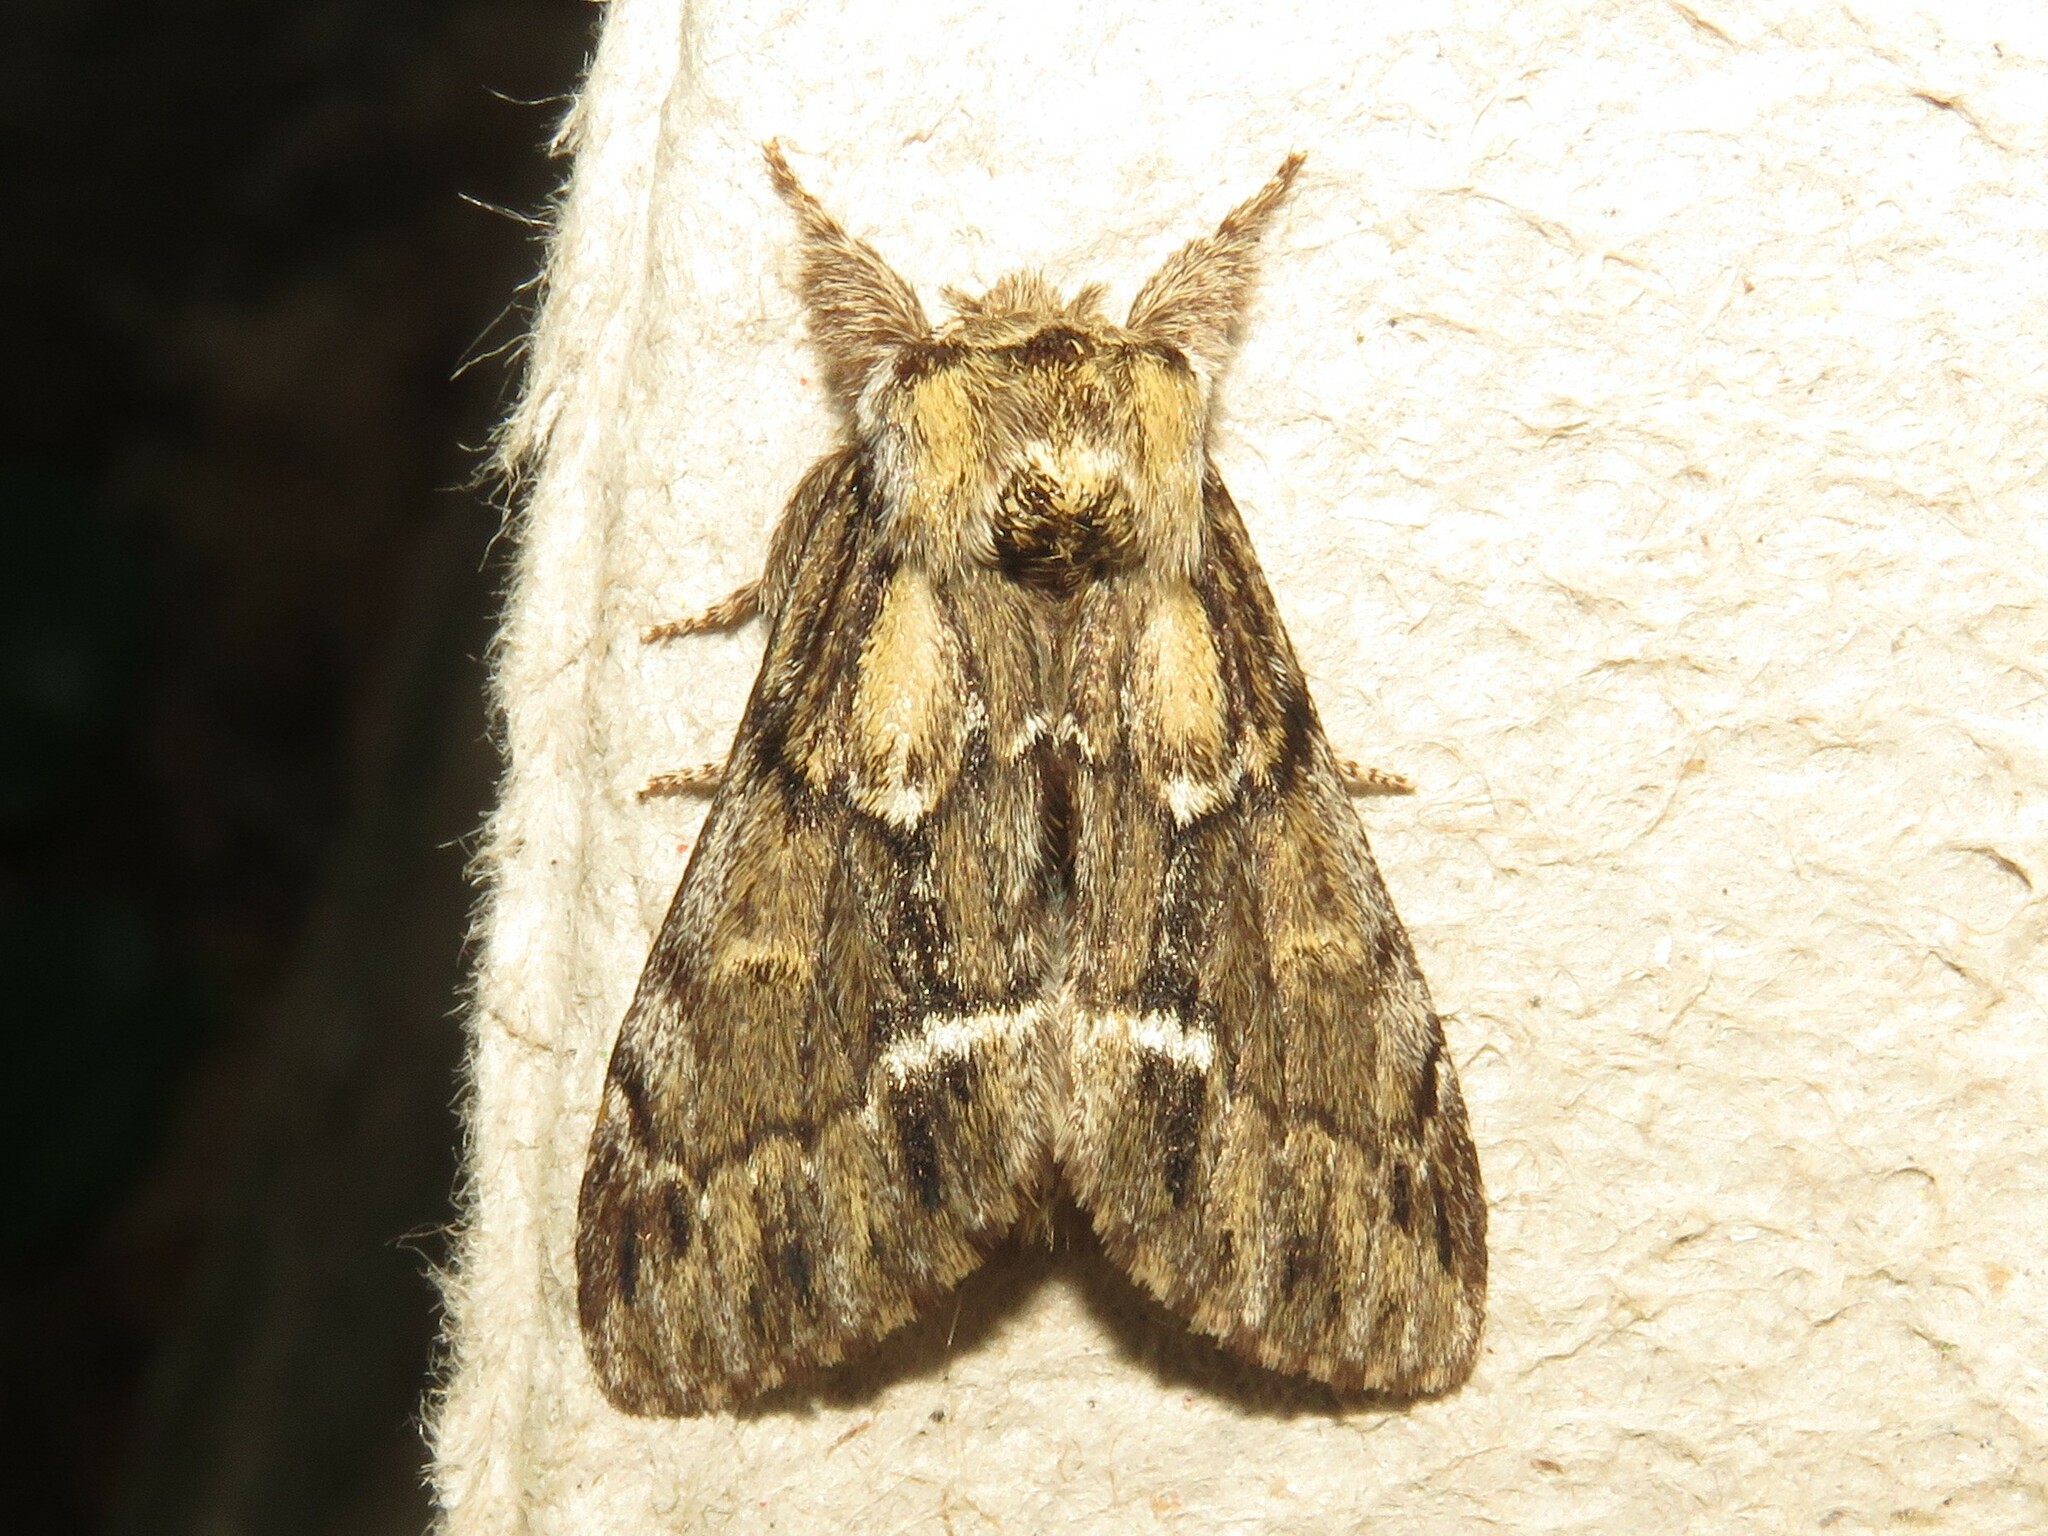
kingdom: Animalia
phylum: Arthropoda
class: Insecta
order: Lepidoptera
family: Notodontidae
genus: Paraeschra
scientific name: Paraeschra georgica
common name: Georgian prominent
